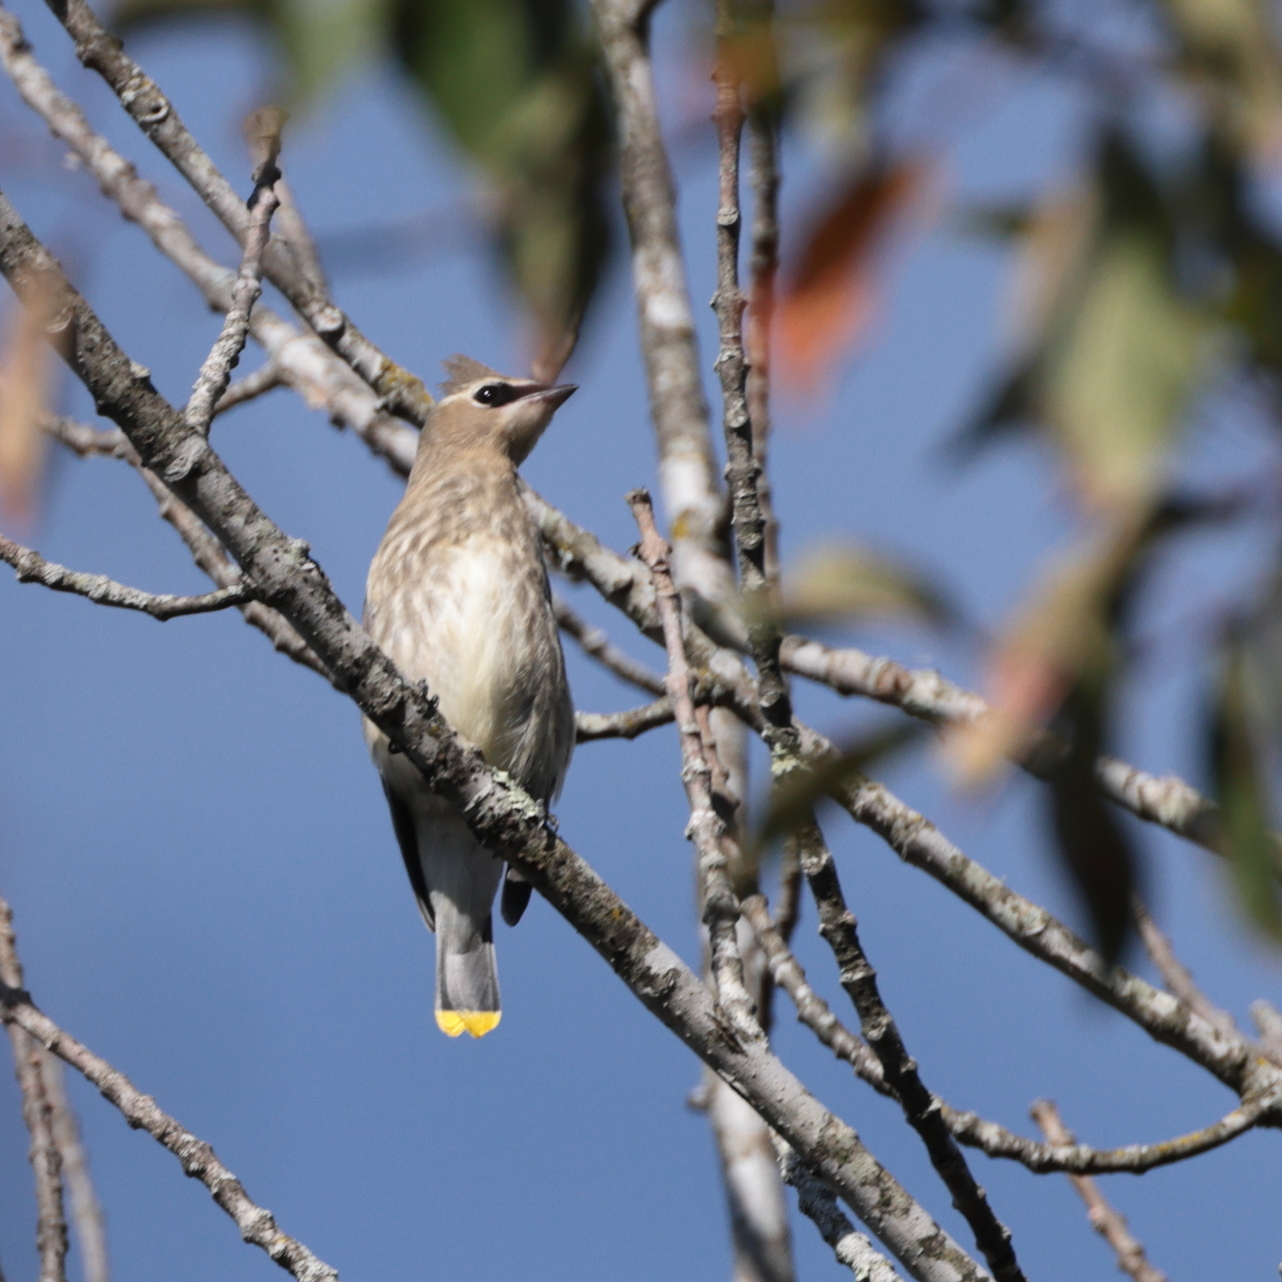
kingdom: Animalia
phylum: Chordata
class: Aves
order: Passeriformes
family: Bombycillidae
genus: Bombycilla
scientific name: Bombycilla cedrorum
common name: Cedar waxwing
